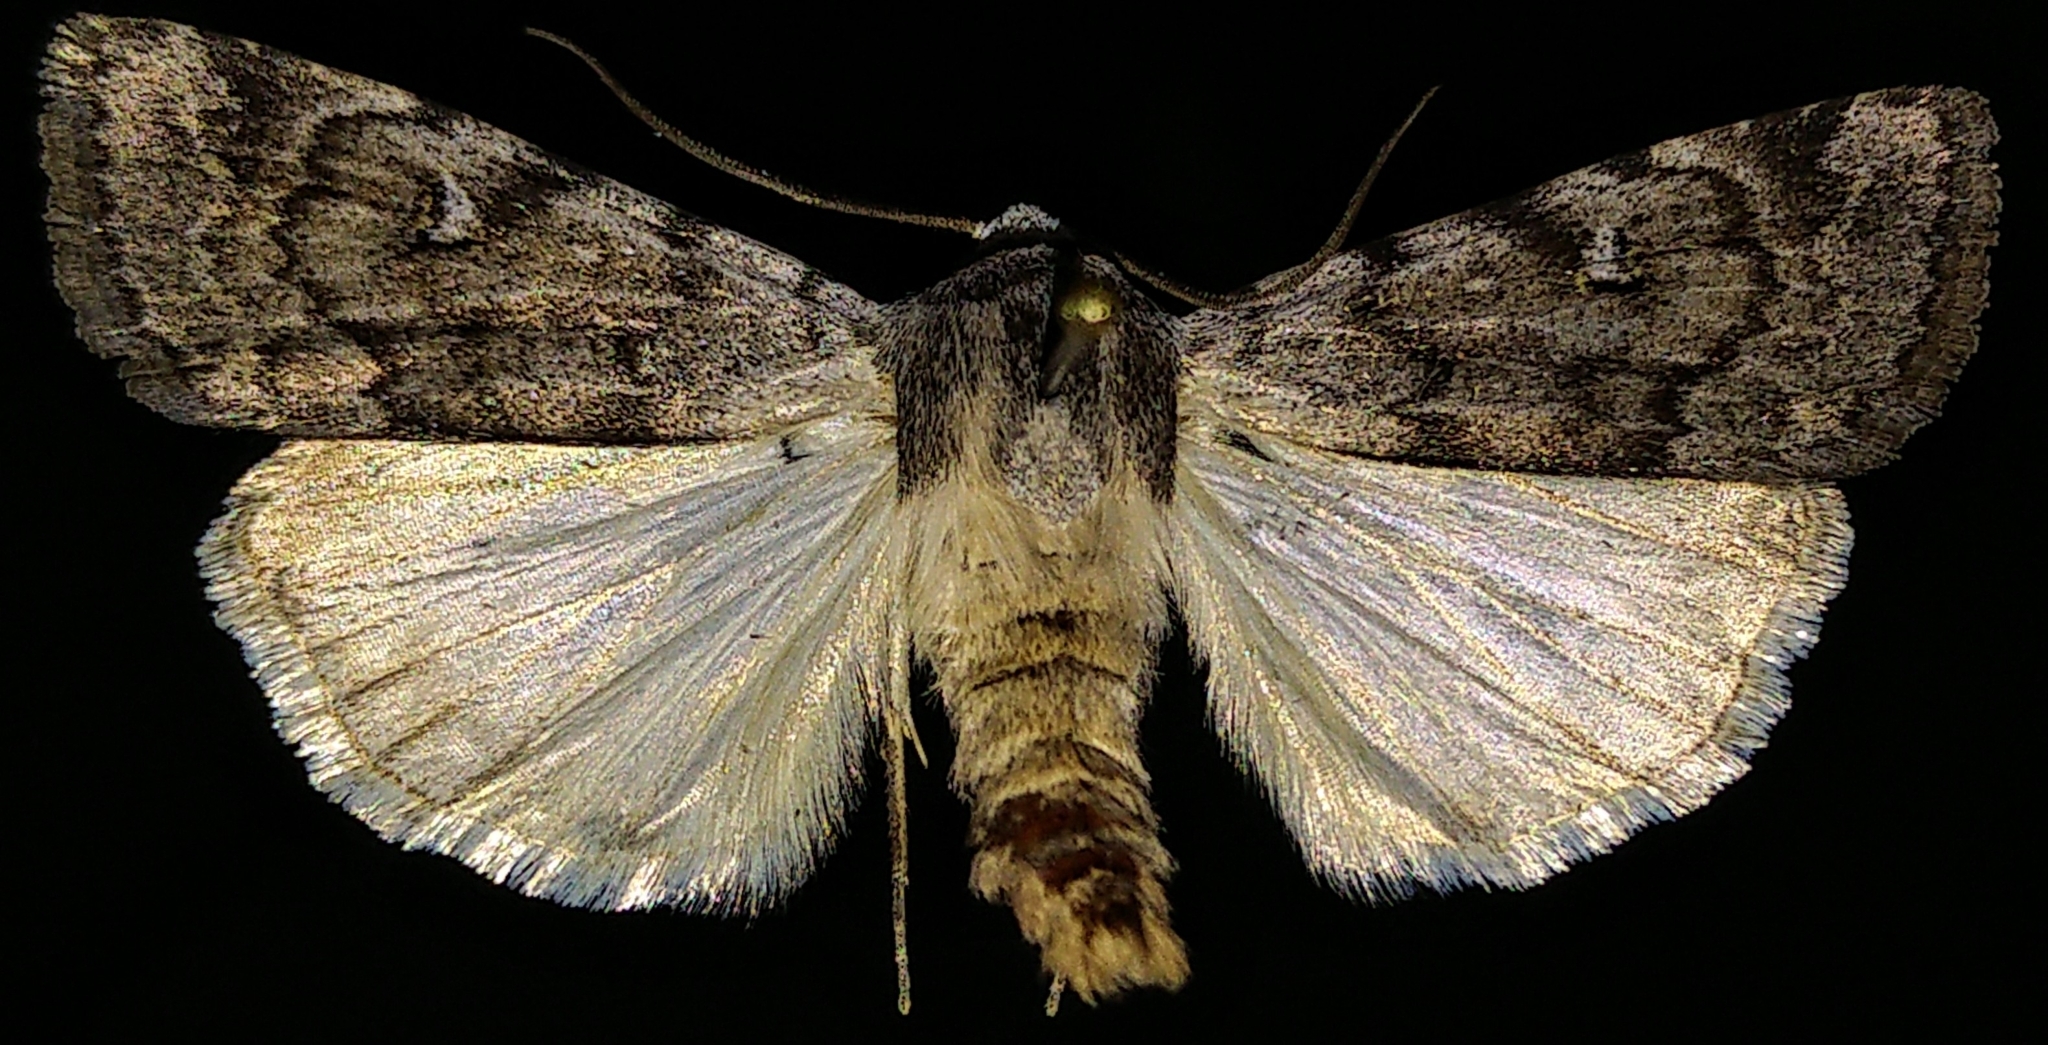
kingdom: Animalia
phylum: Arthropoda
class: Insecta
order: Lepidoptera
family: Noctuidae
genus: Anicla
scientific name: Anicla tepperi
